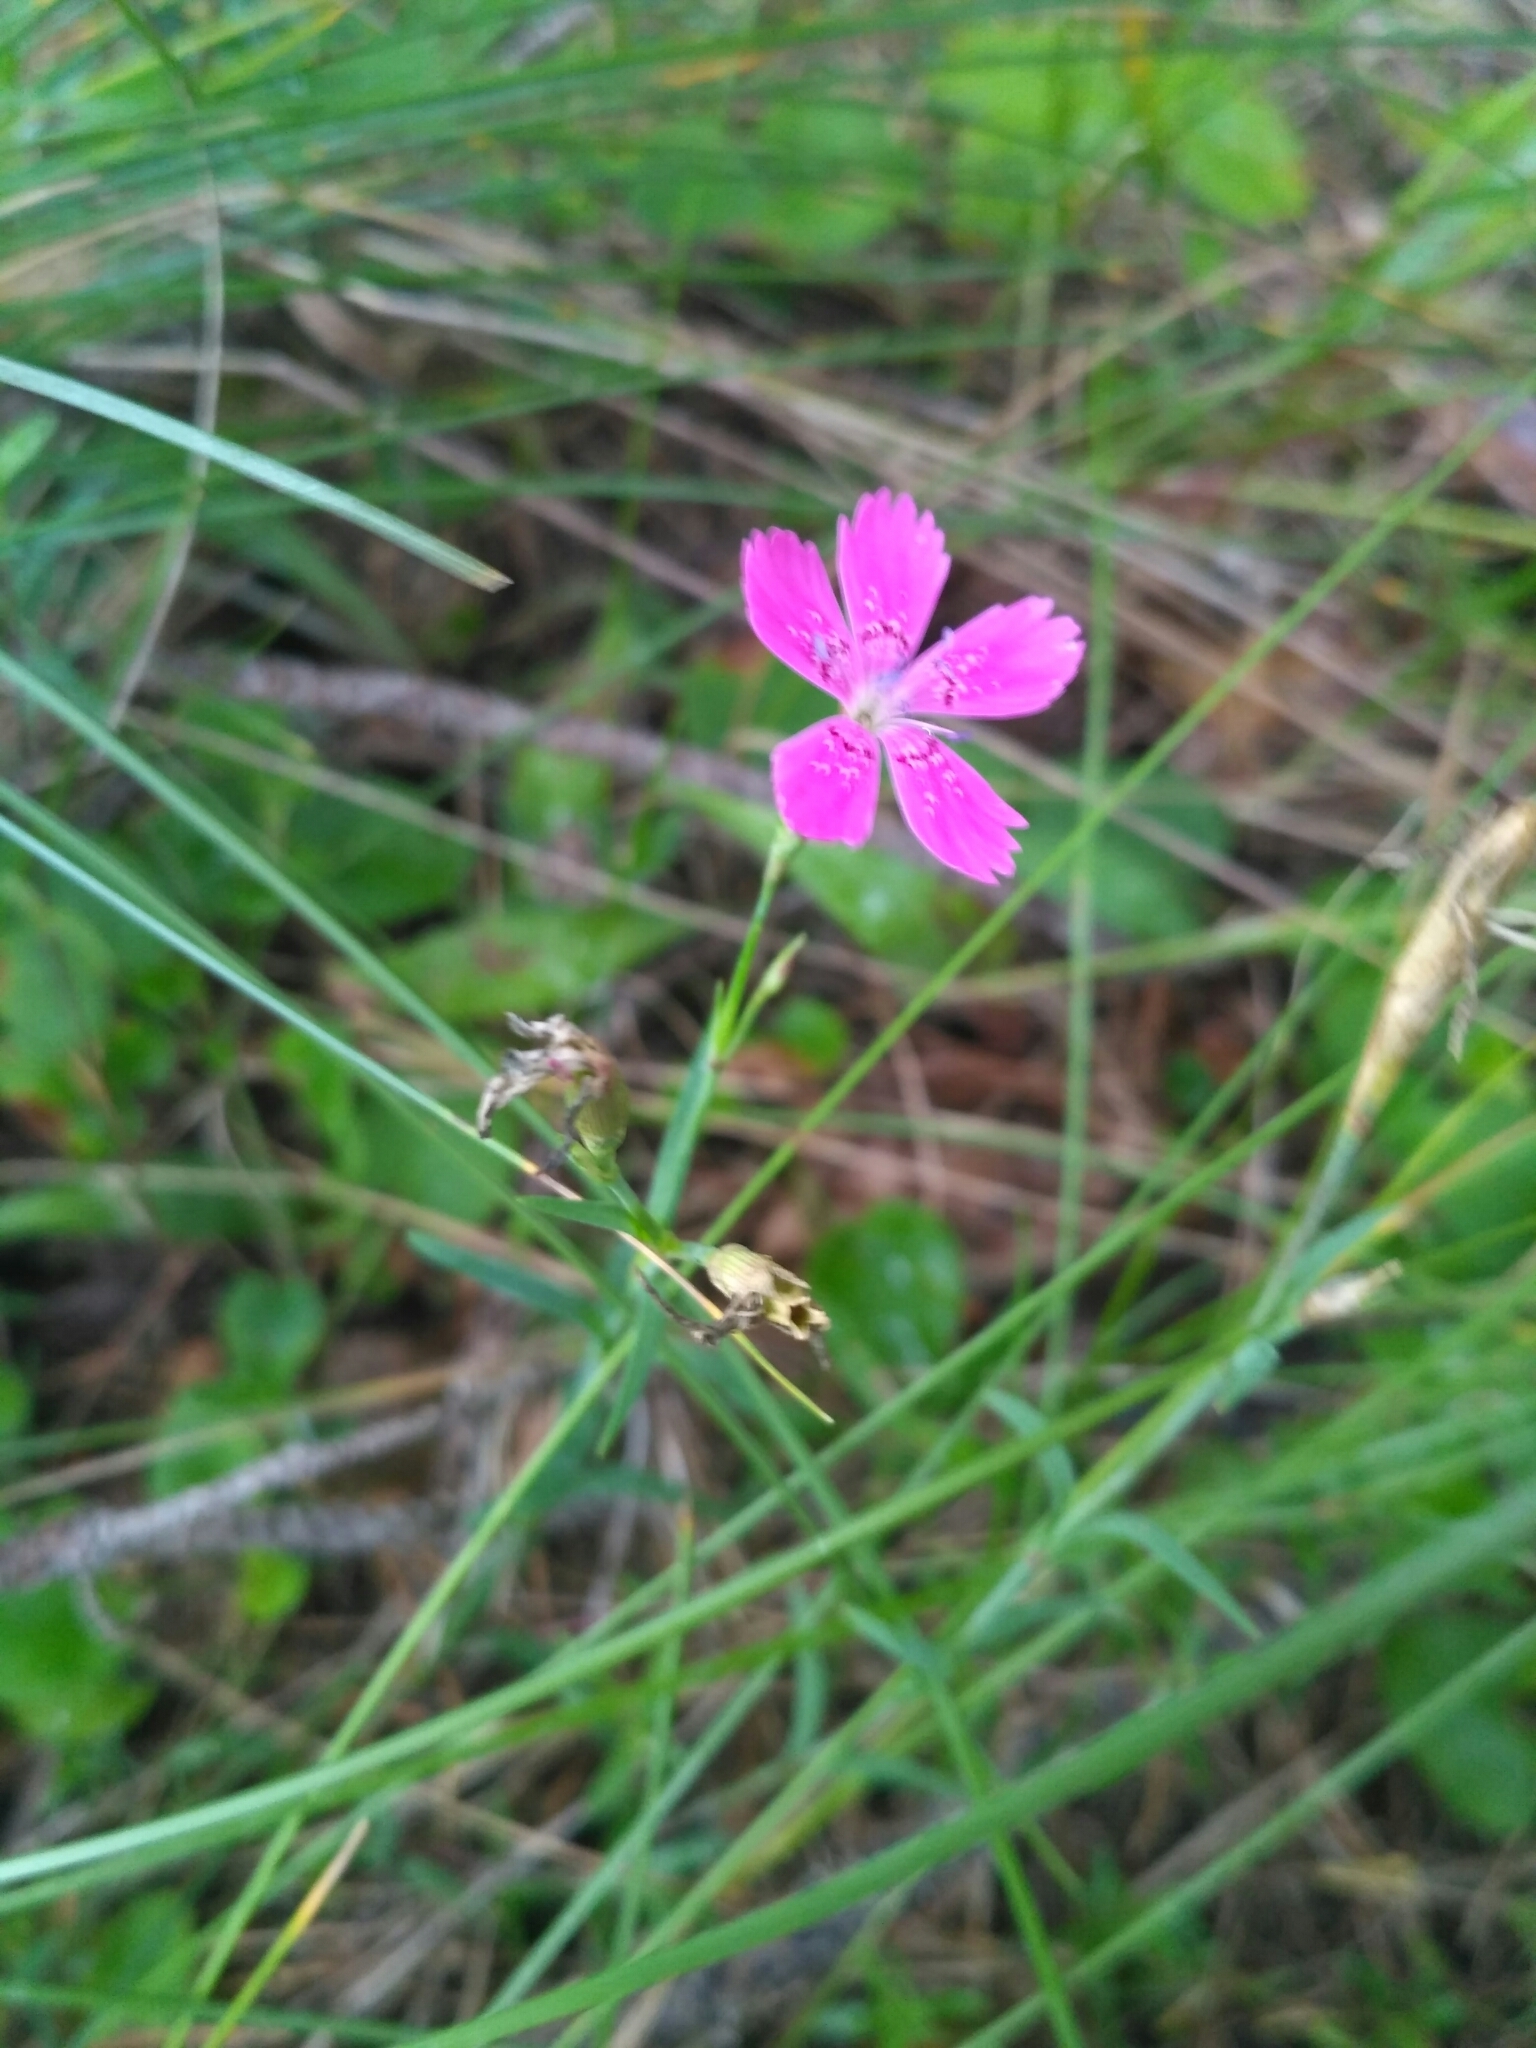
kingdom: Plantae
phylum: Tracheophyta
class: Magnoliopsida
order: Caryophyllales
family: Caryophyllaceae
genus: Dianthus
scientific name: Dianthus deltoides
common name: Maiden pink
